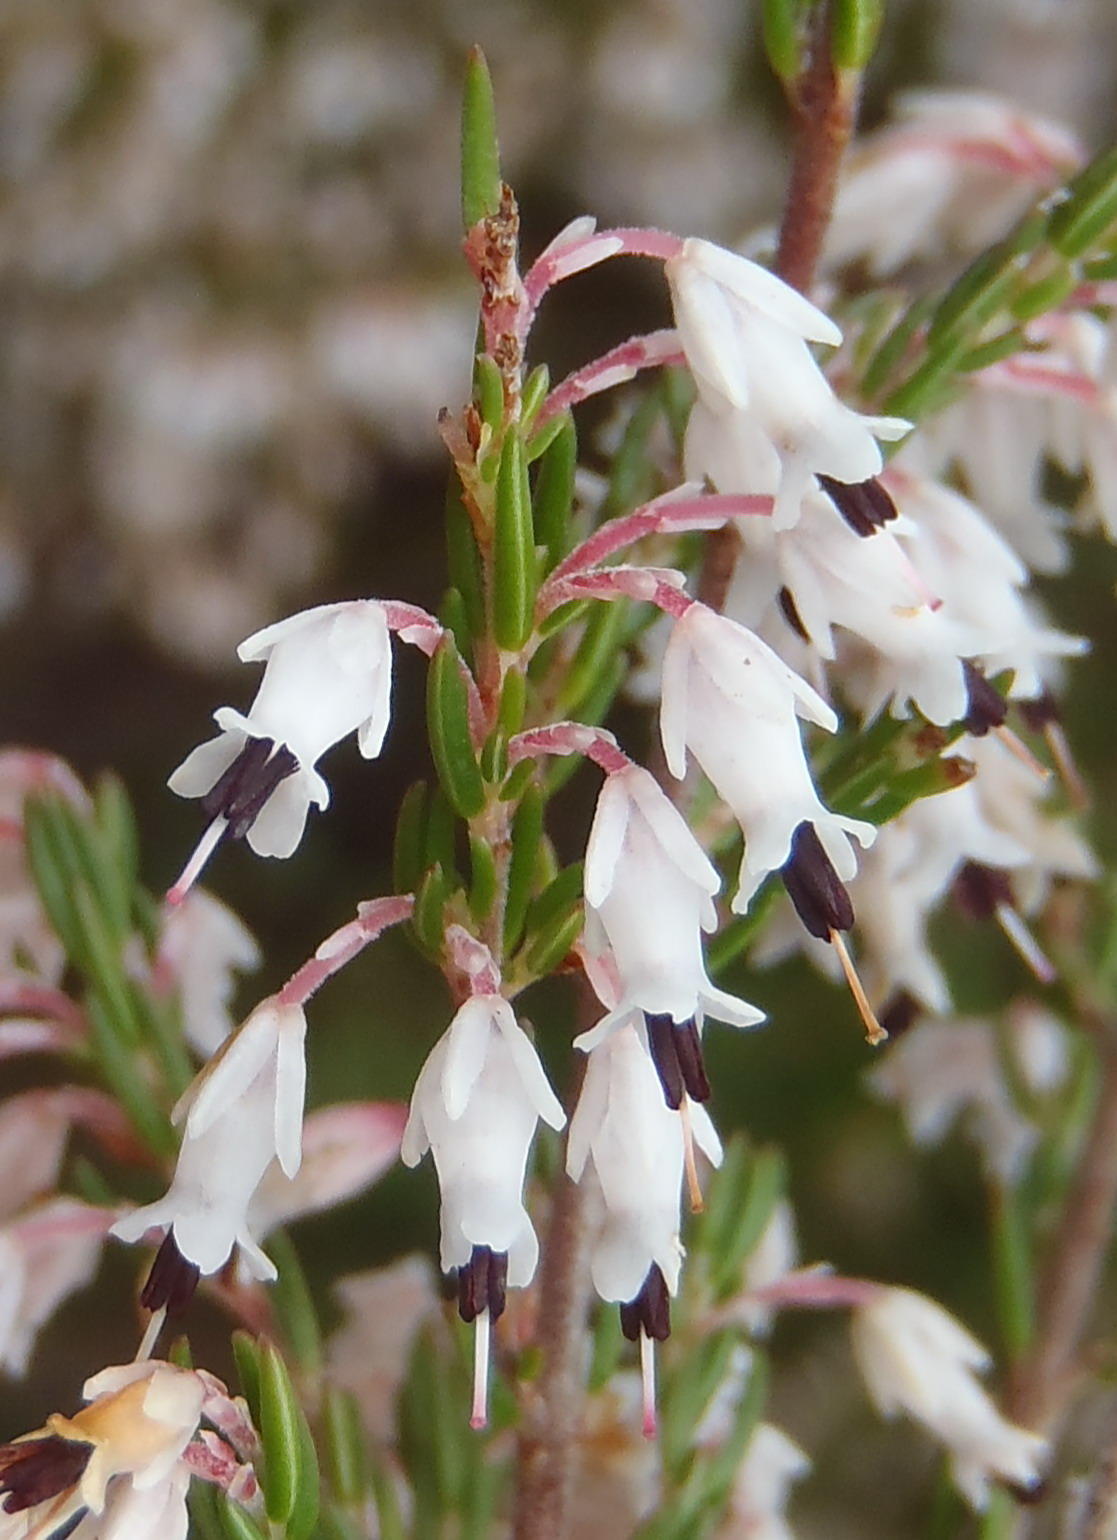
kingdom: Plantae
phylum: Tracheophyta
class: Magnoliopsida
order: Ericales
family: Ericaceae
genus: Erica
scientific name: Erica fuscescens
